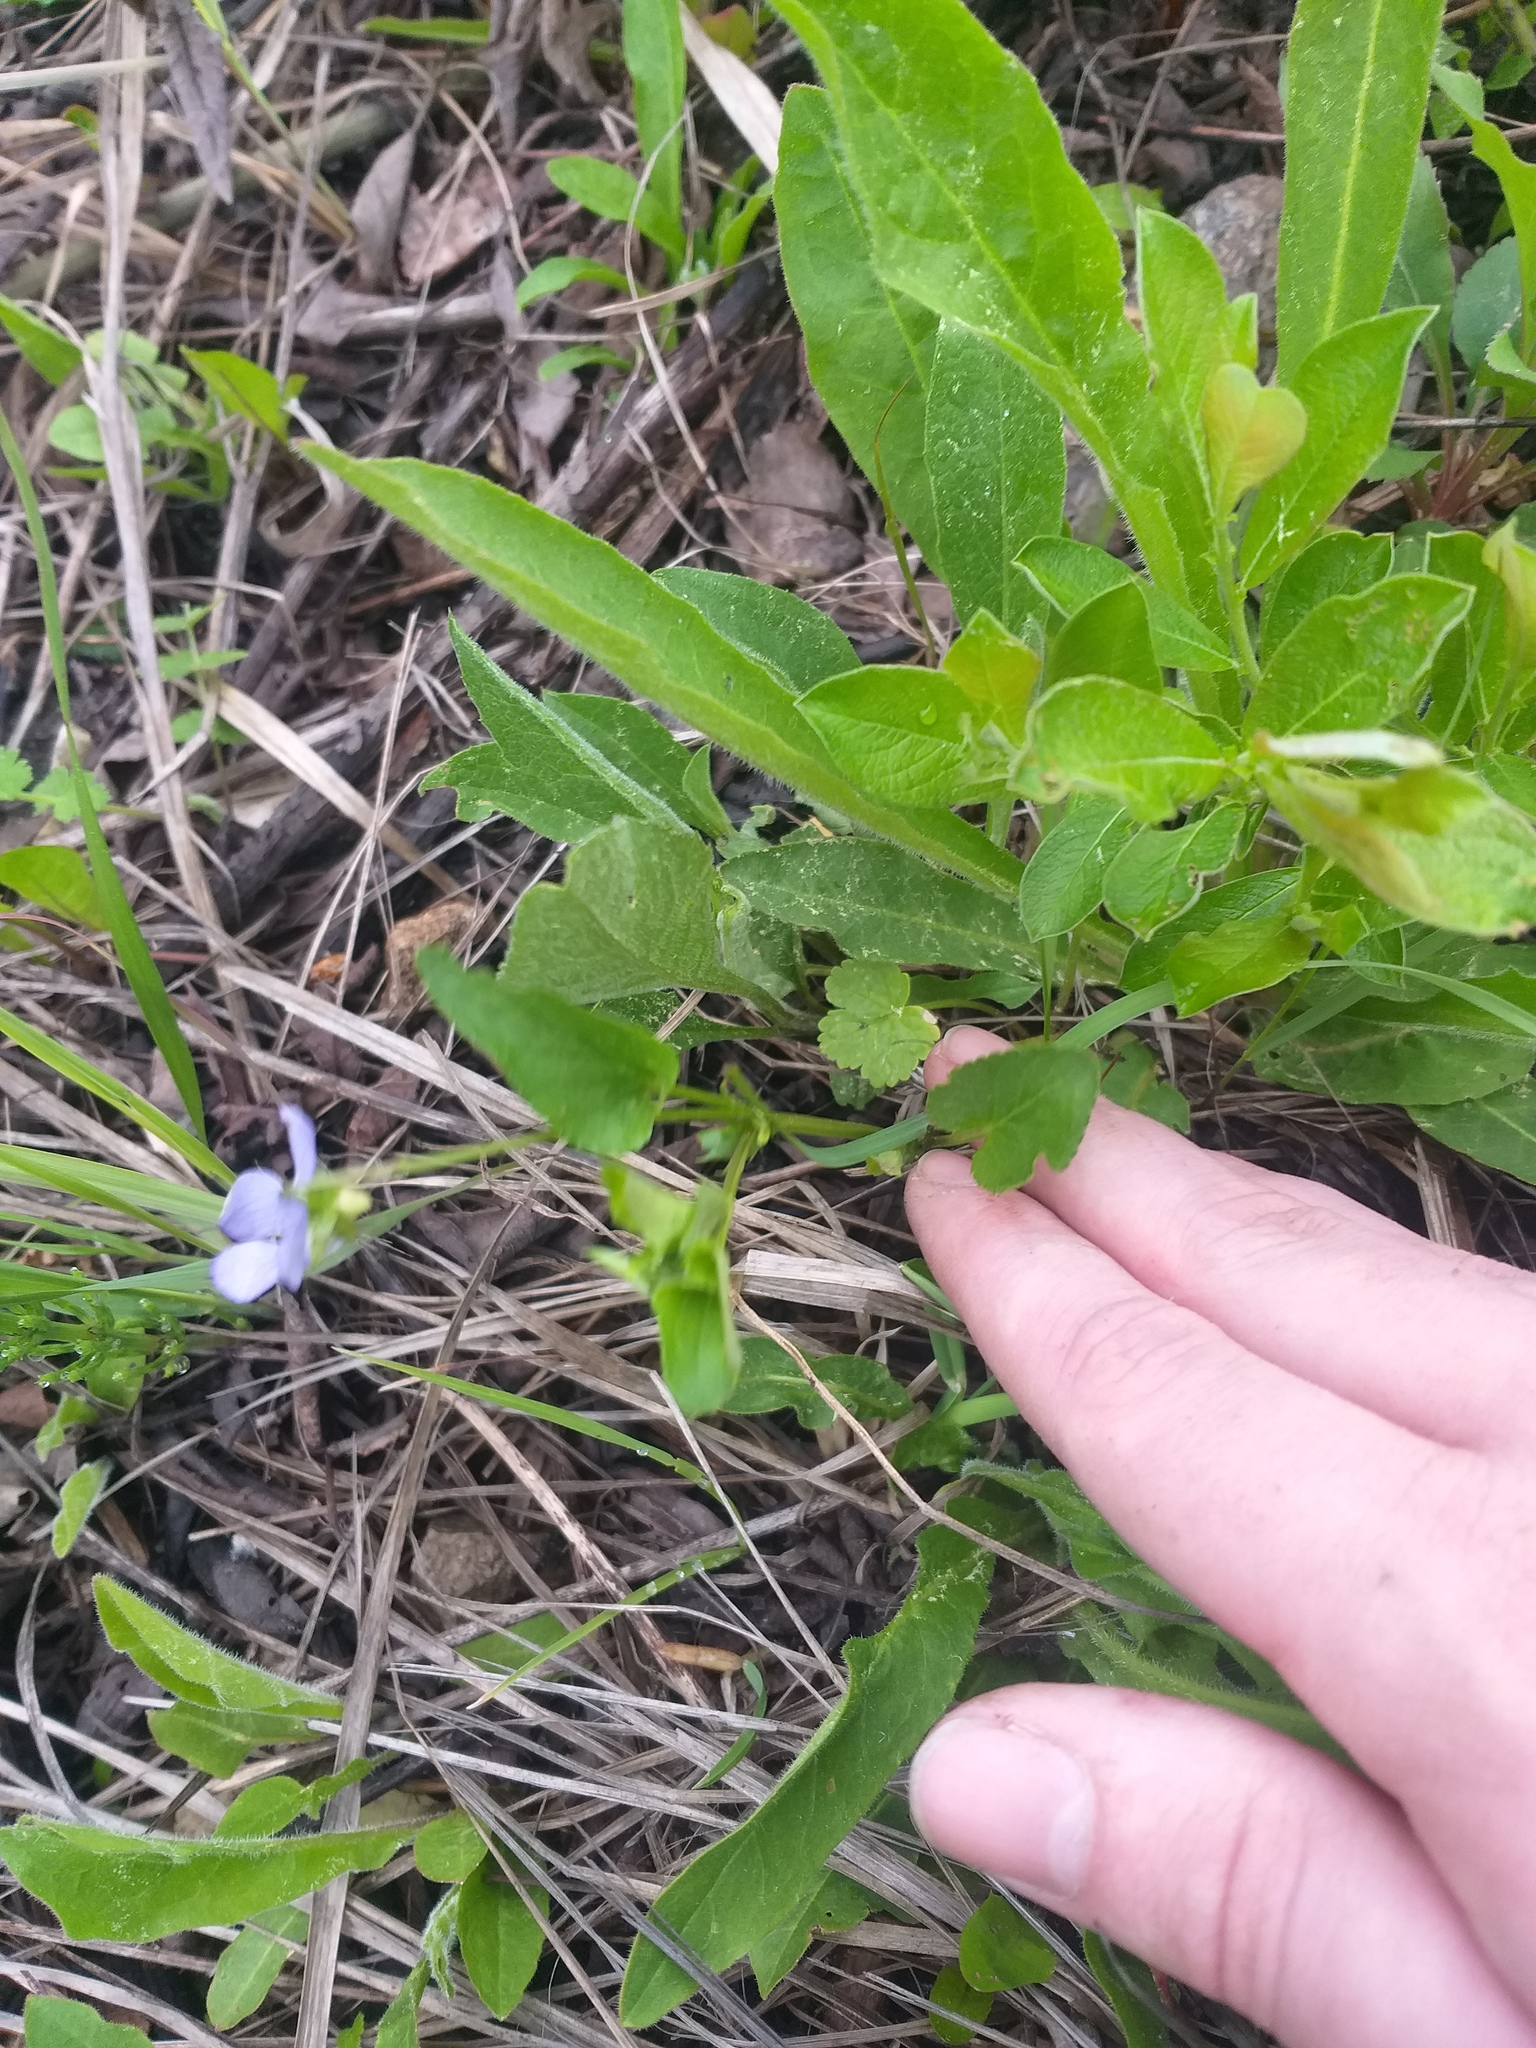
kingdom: Plantae
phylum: Tracheophyta
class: Magnoliopsida
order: Malpighiales
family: Violaceae
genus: Viola
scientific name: Viola
